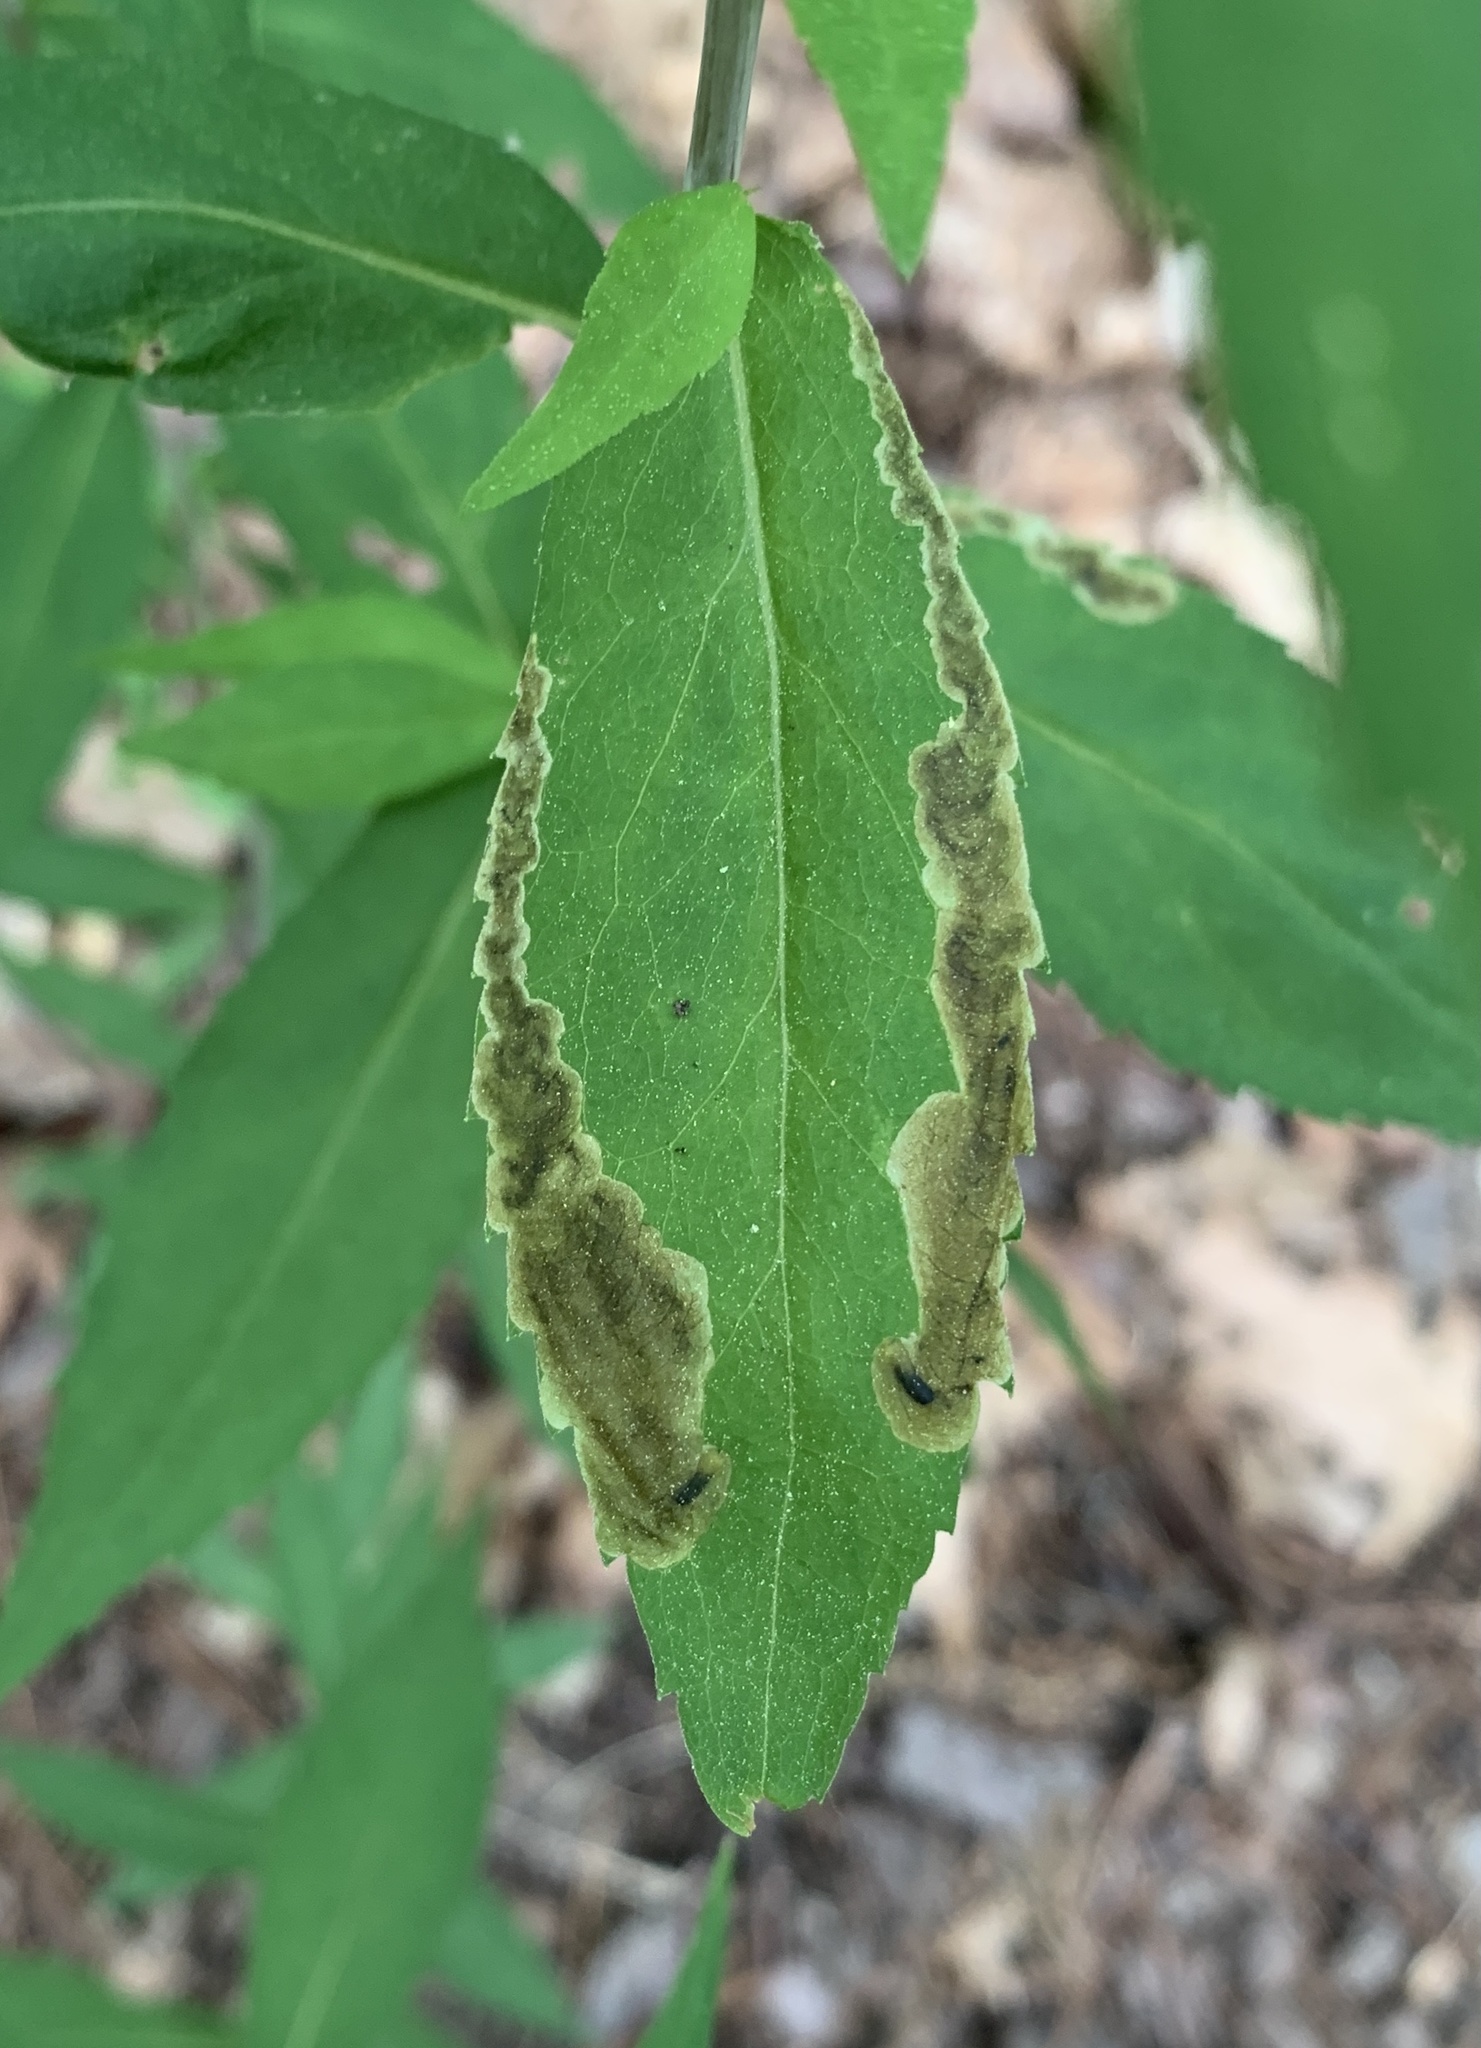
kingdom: Animalia
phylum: Arthropoda
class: Insecta
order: Diptera
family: Agromyzidae
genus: Nemorimyza
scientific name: Nemorimyza posticata
